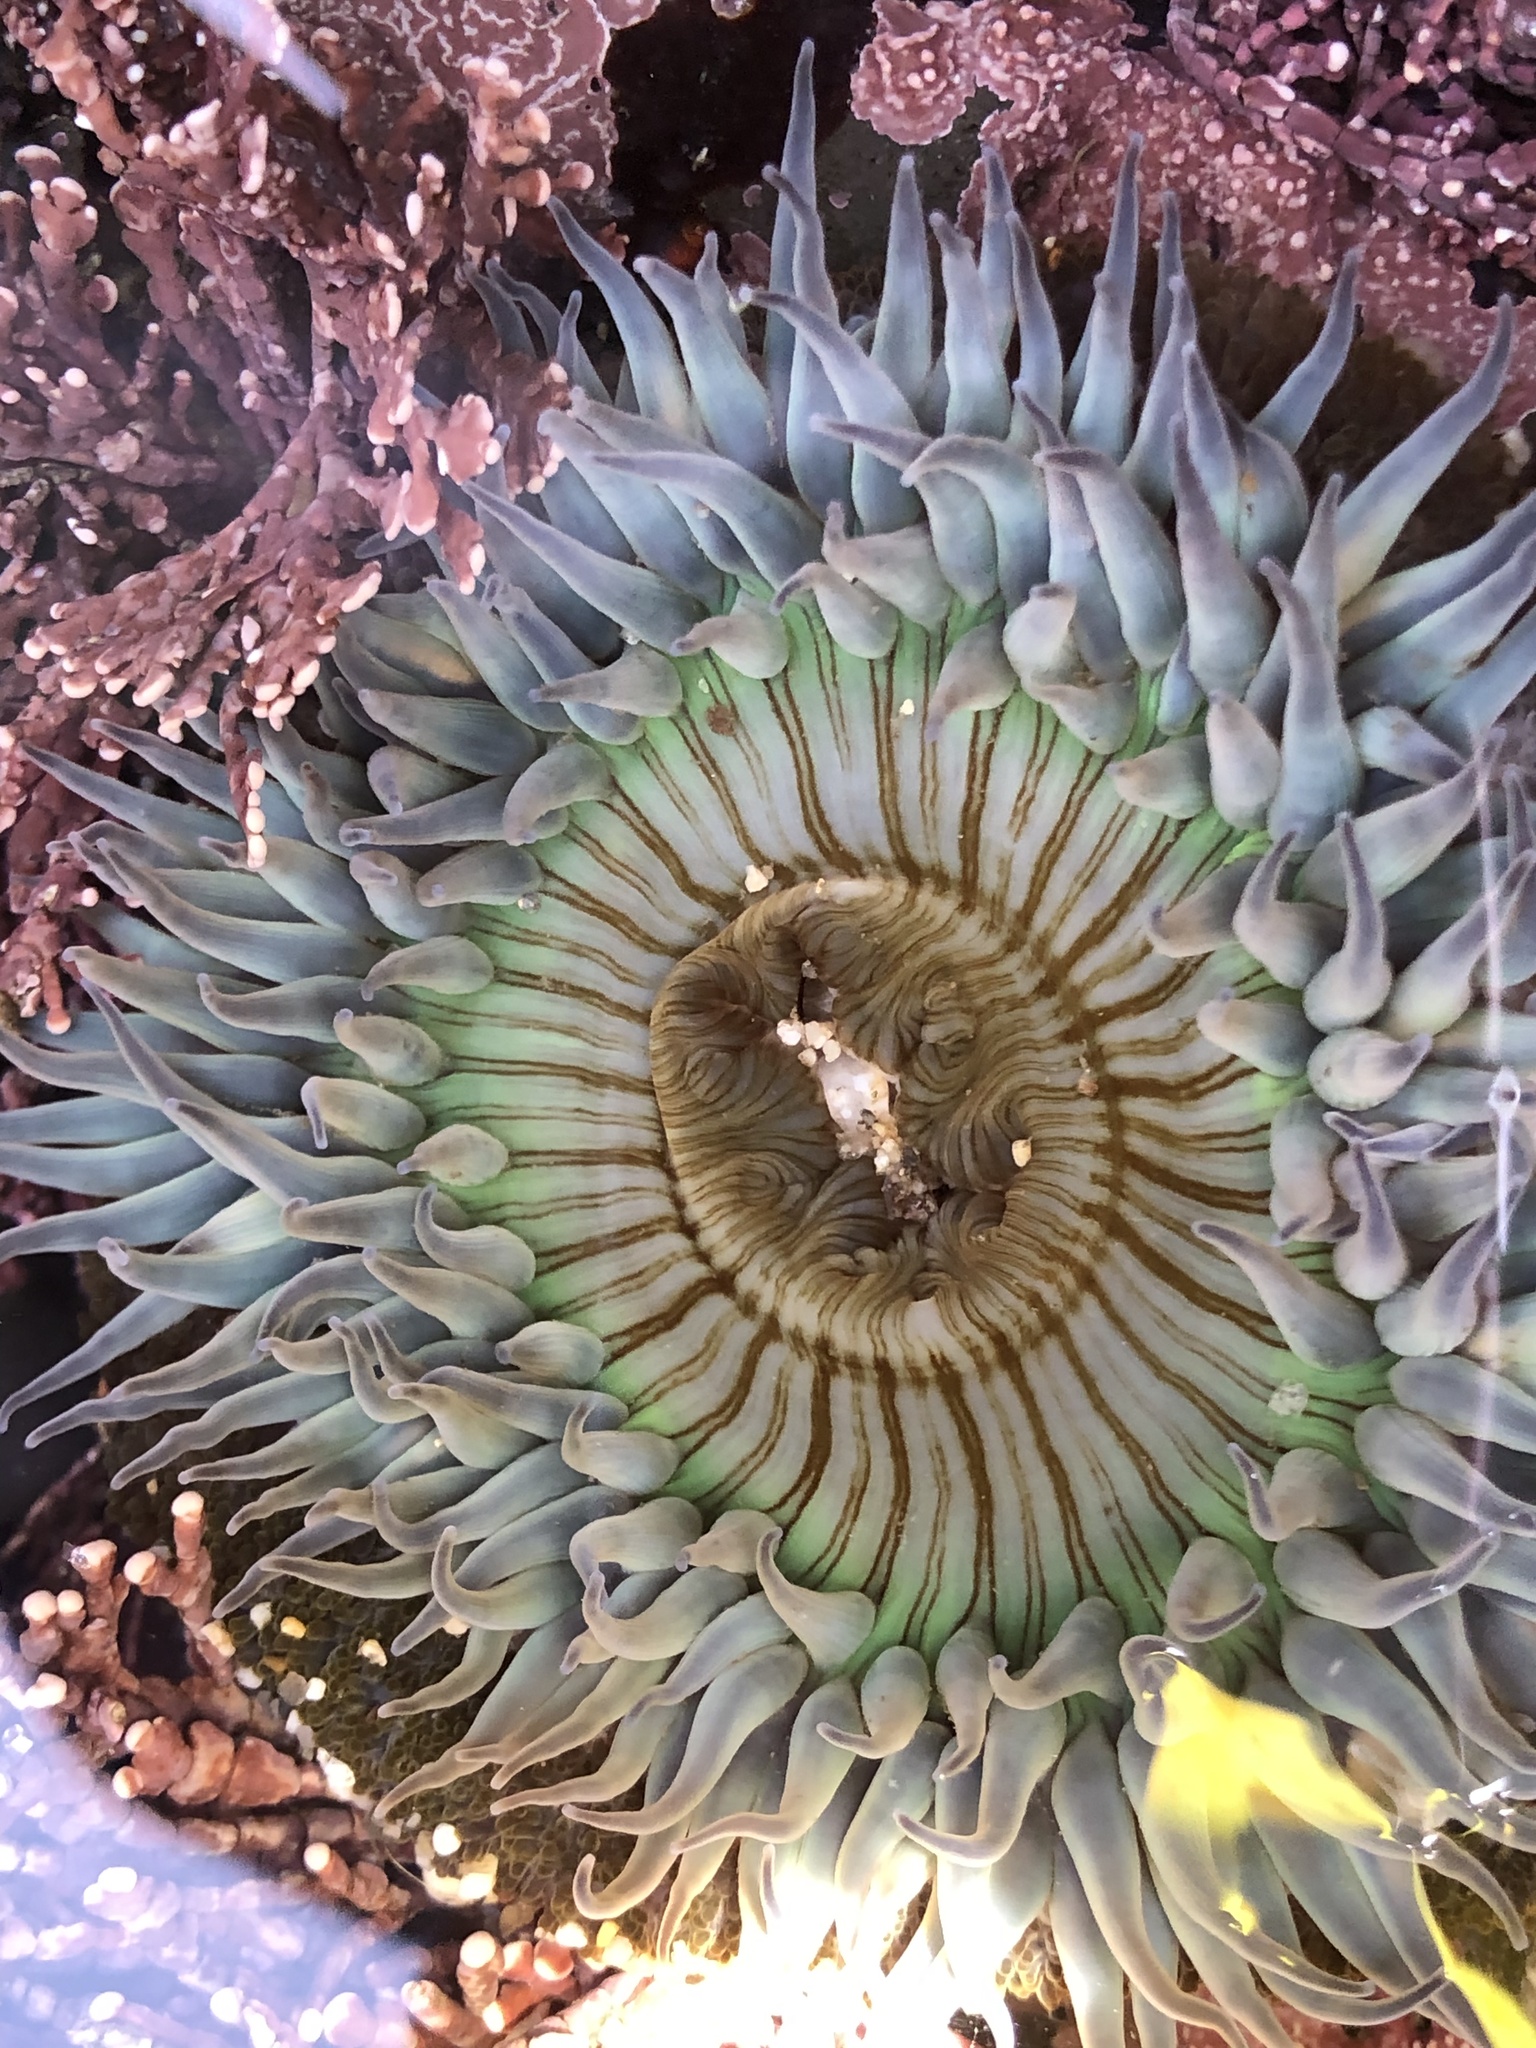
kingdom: Animalia
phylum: Cnidaria
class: Anthozoa
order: Actiniaria
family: Actiniidae
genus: Anthopleura
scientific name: Anthopleura sola
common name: Sun anemone
